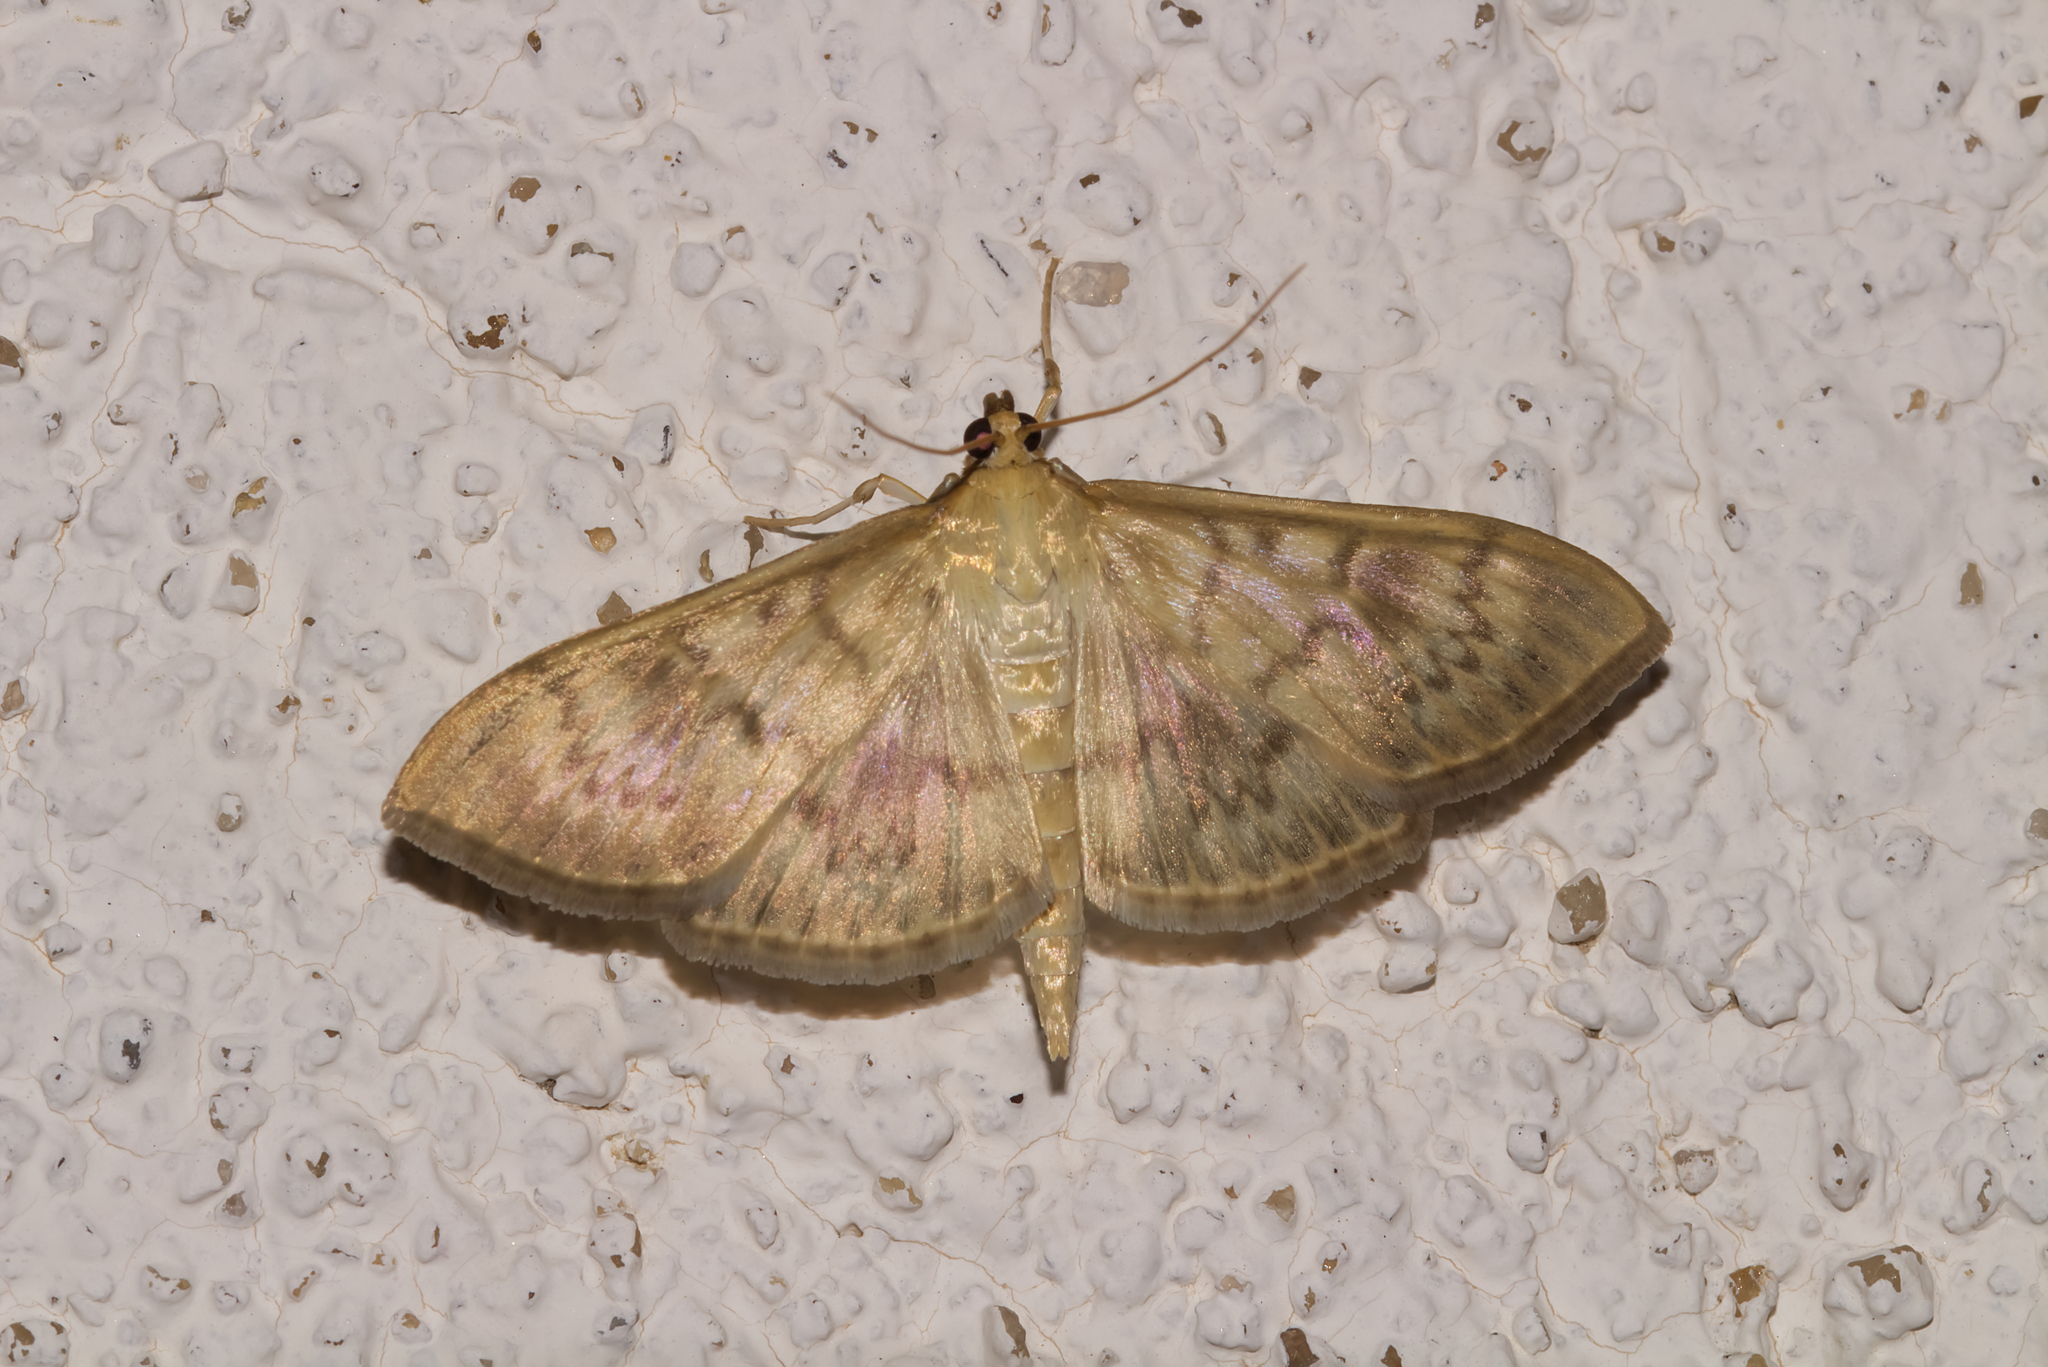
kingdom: Animalia
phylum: Arthropoda
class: Insecta
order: Lepidoptera
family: Crambidae
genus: Patania
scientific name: Patania ruralis
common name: Mother of pearl
